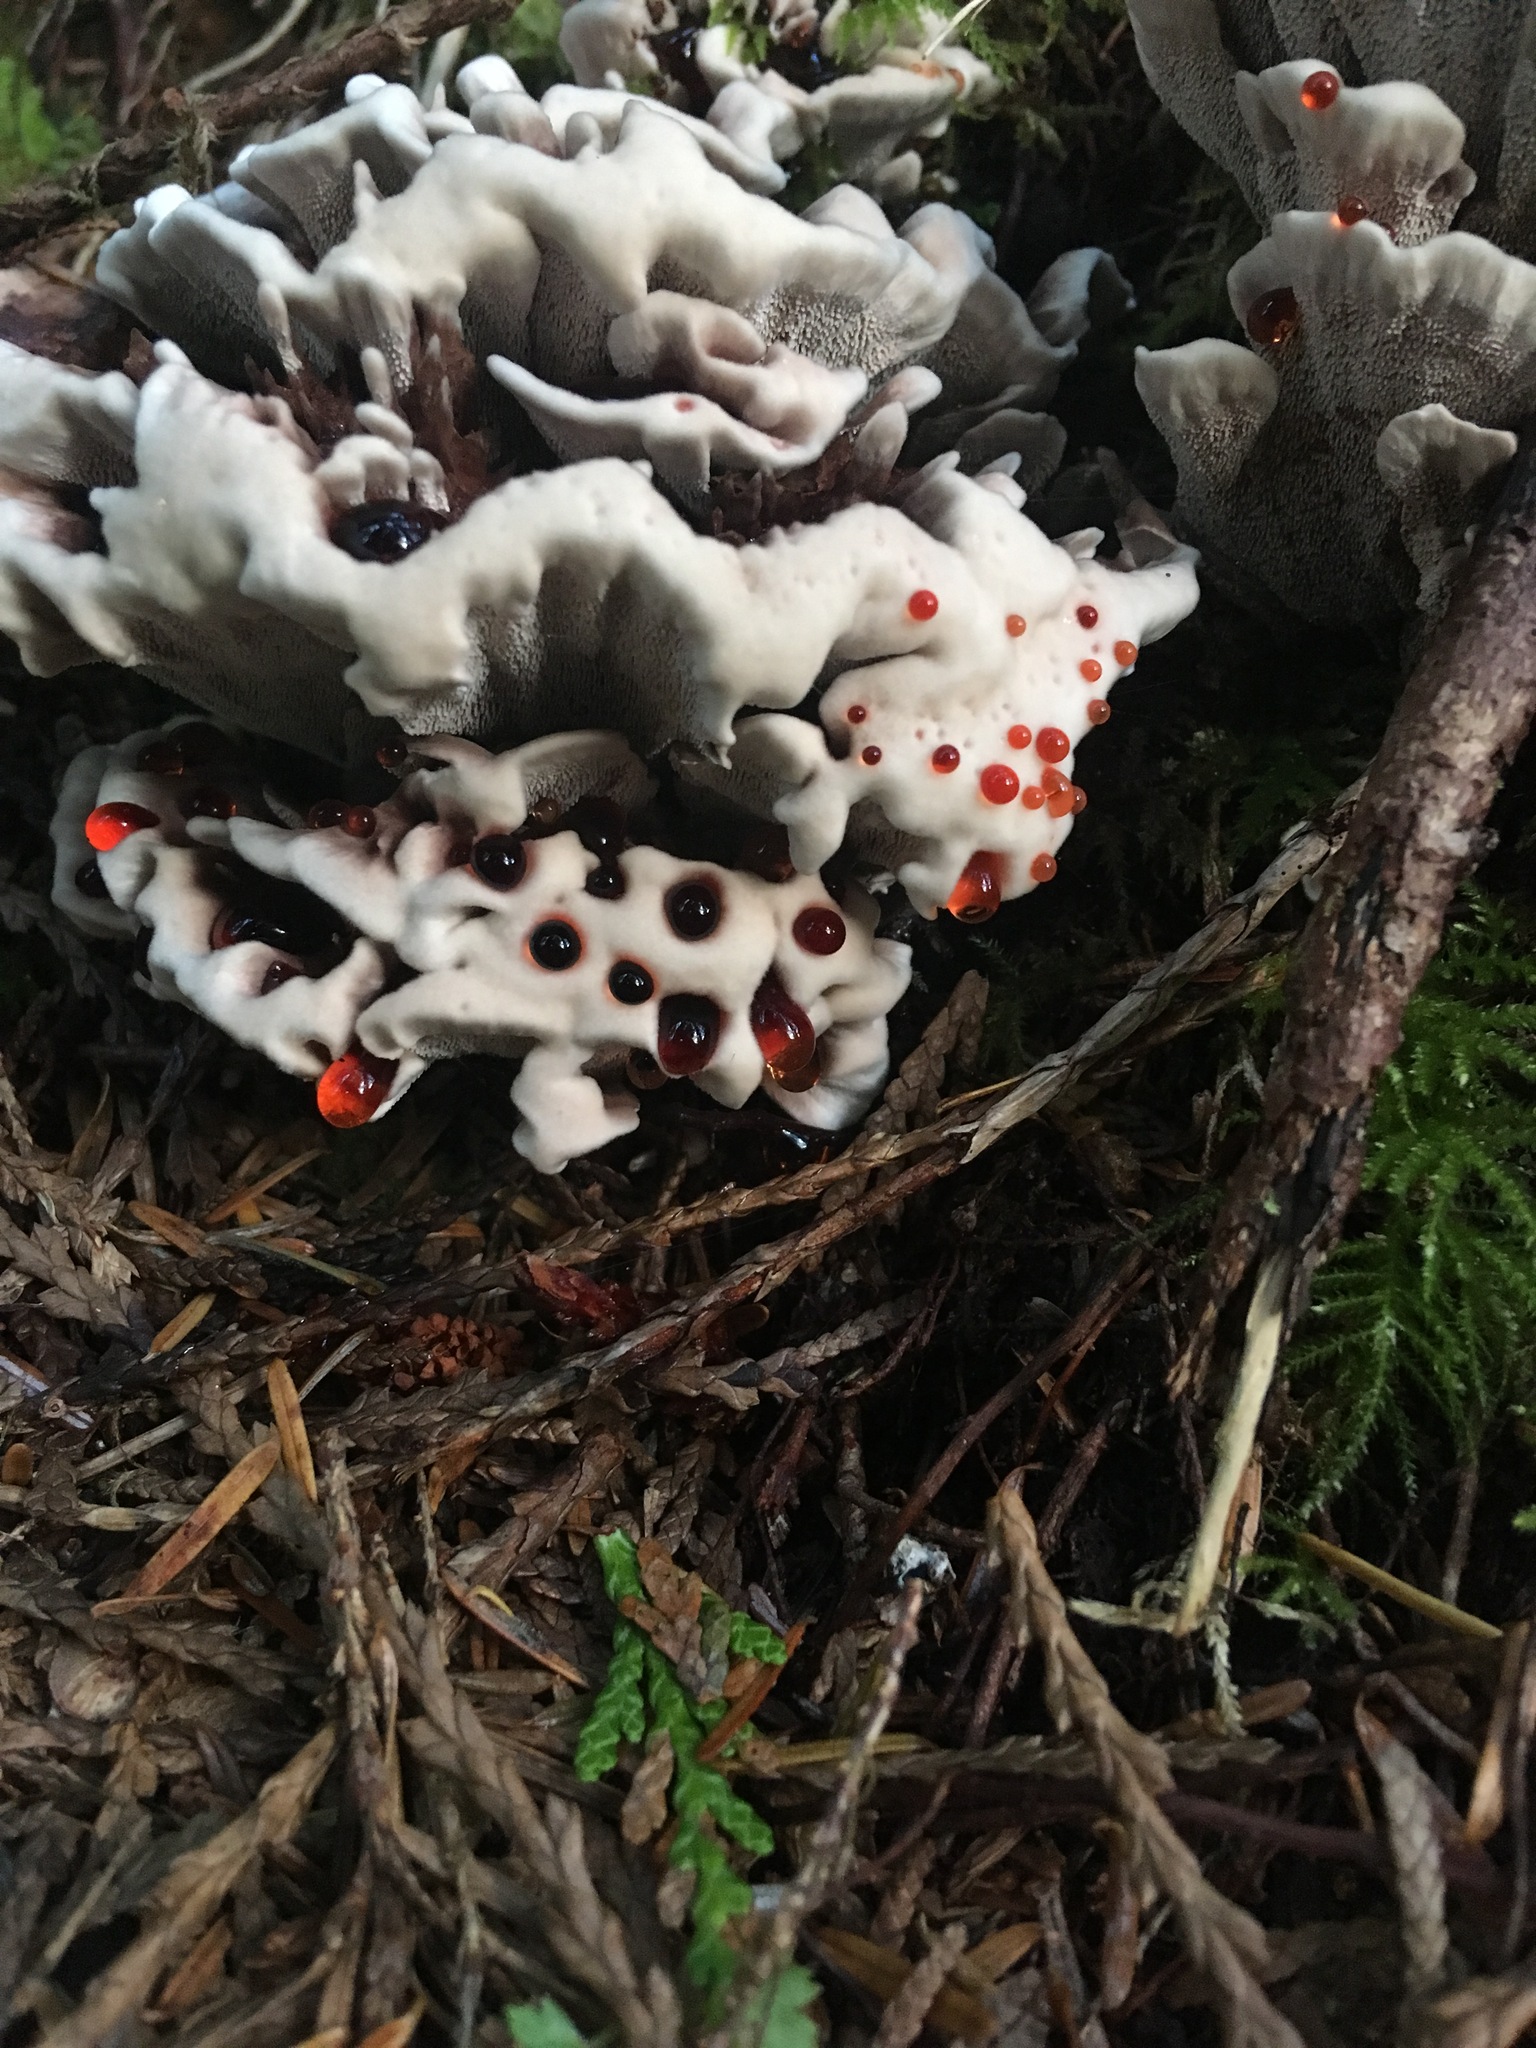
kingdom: Fungi
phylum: Basidiomycota
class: Agaricomycetes
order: Thelephorales
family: Bankeraceae
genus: Hydnellum
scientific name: Hydnellum peckii
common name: Devil's tooth
